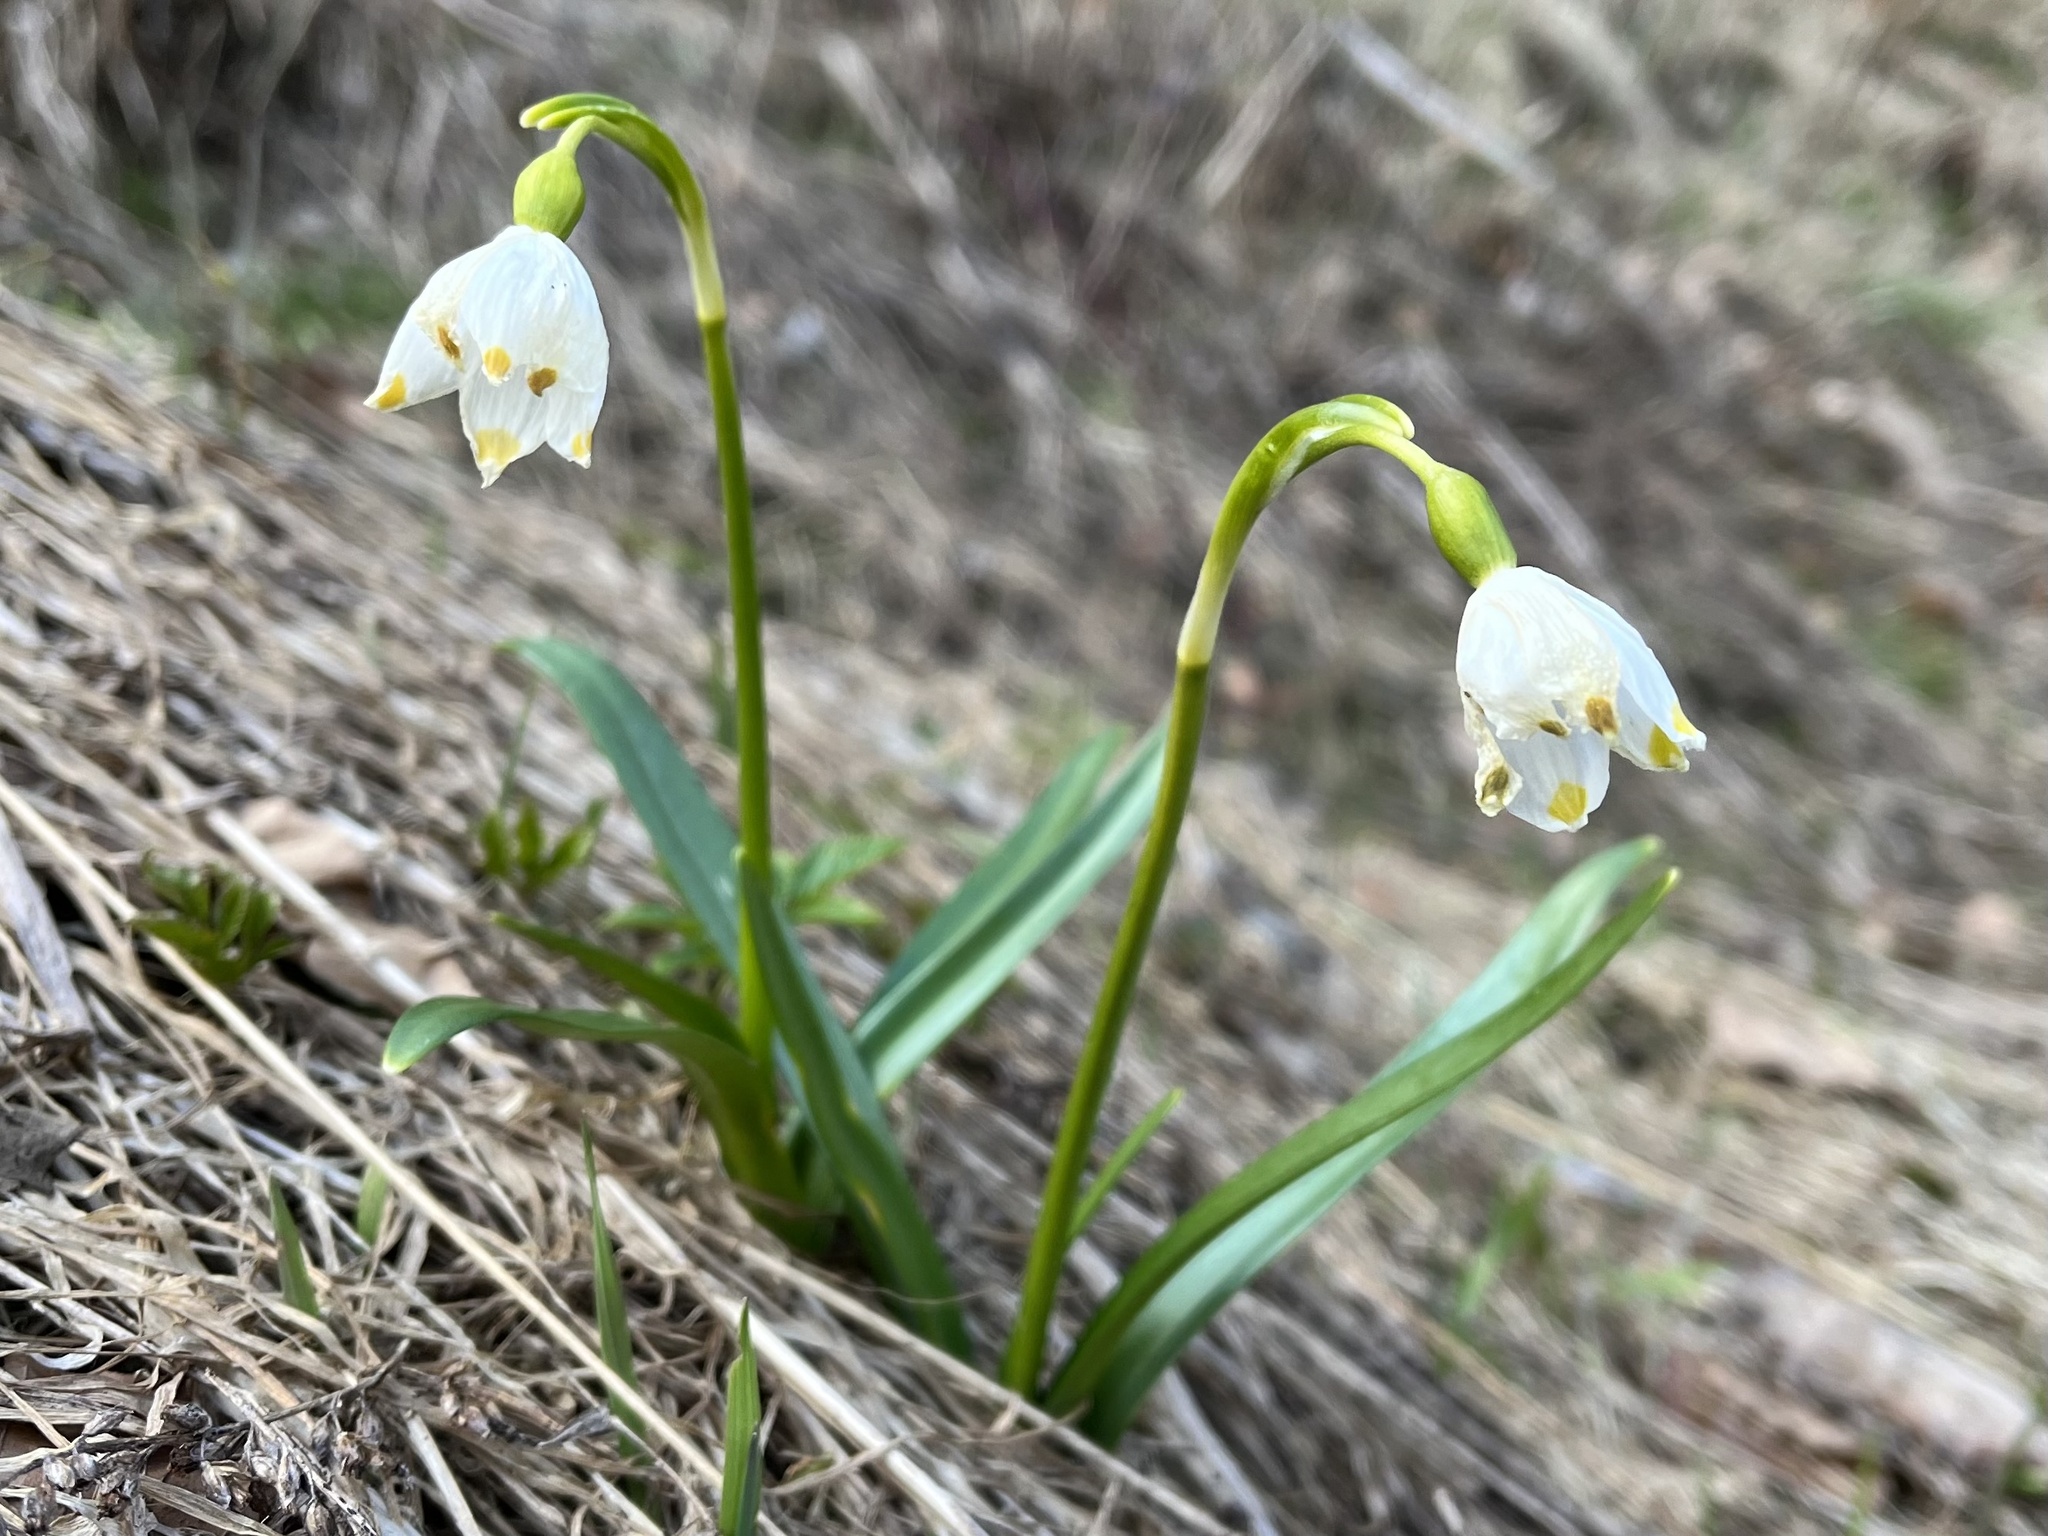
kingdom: Plantae
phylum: Tracheophyta
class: Liliopsida
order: Asparagales
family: Amaryllidaceae
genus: Leucojum
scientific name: Leucojum vernum
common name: Spring snowflake
